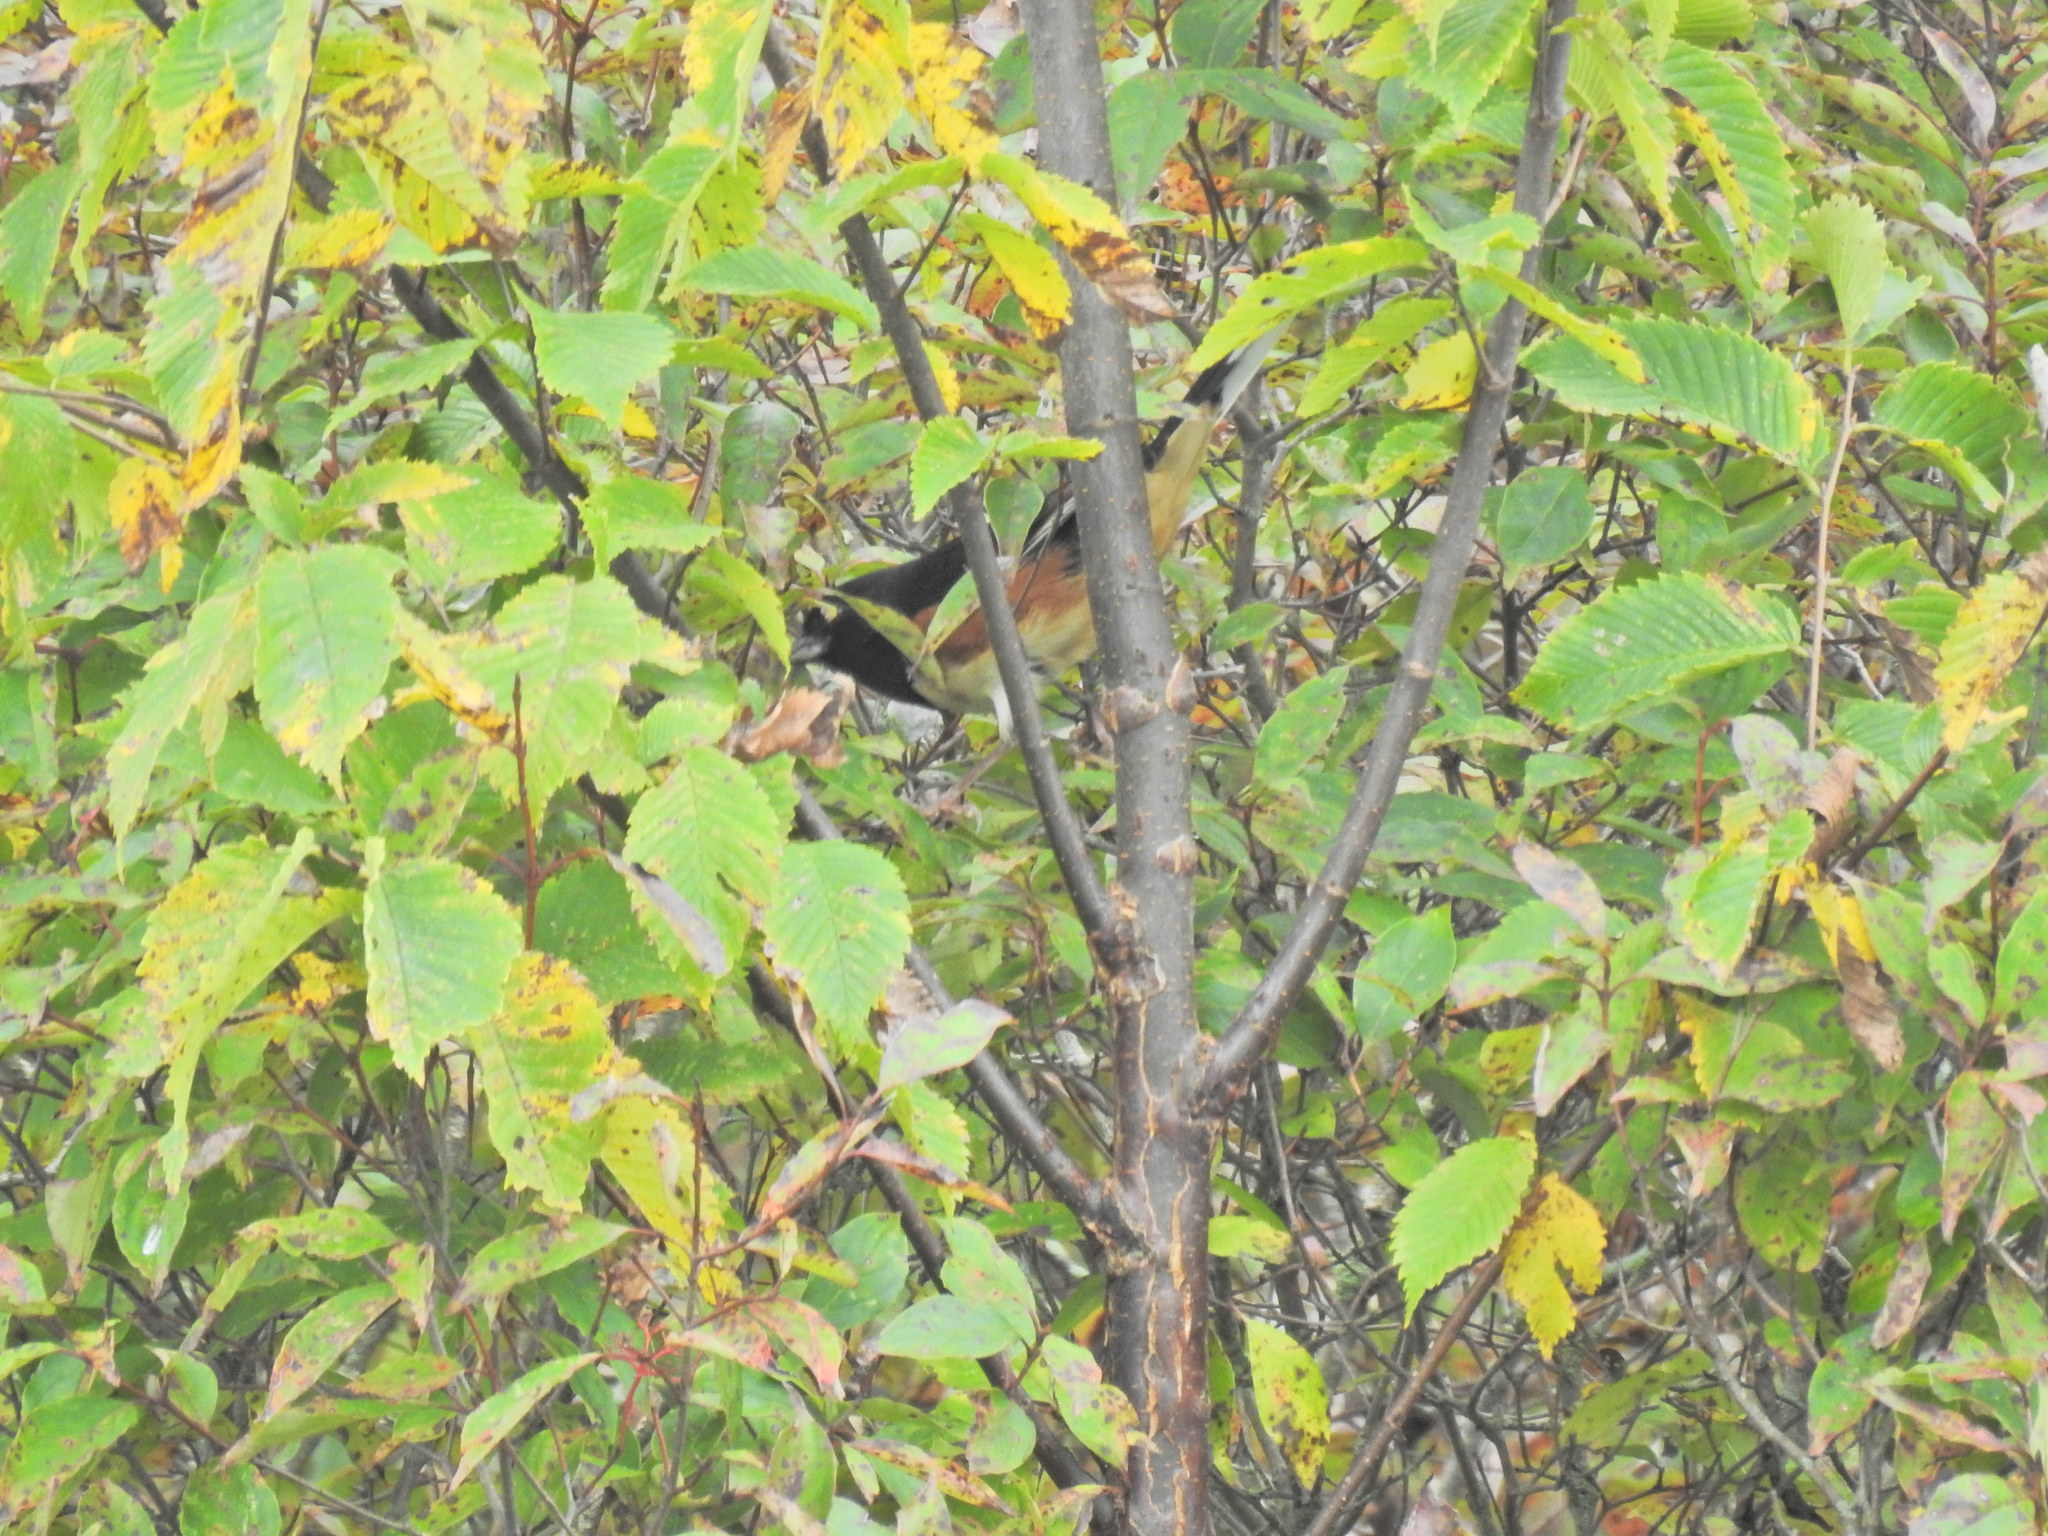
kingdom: Animalia
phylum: Chordata
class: Aves
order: Passeriformes
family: Passerellidae
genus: Pipilo
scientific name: Pipilo erythrophthalmus
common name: Eastern towhee
